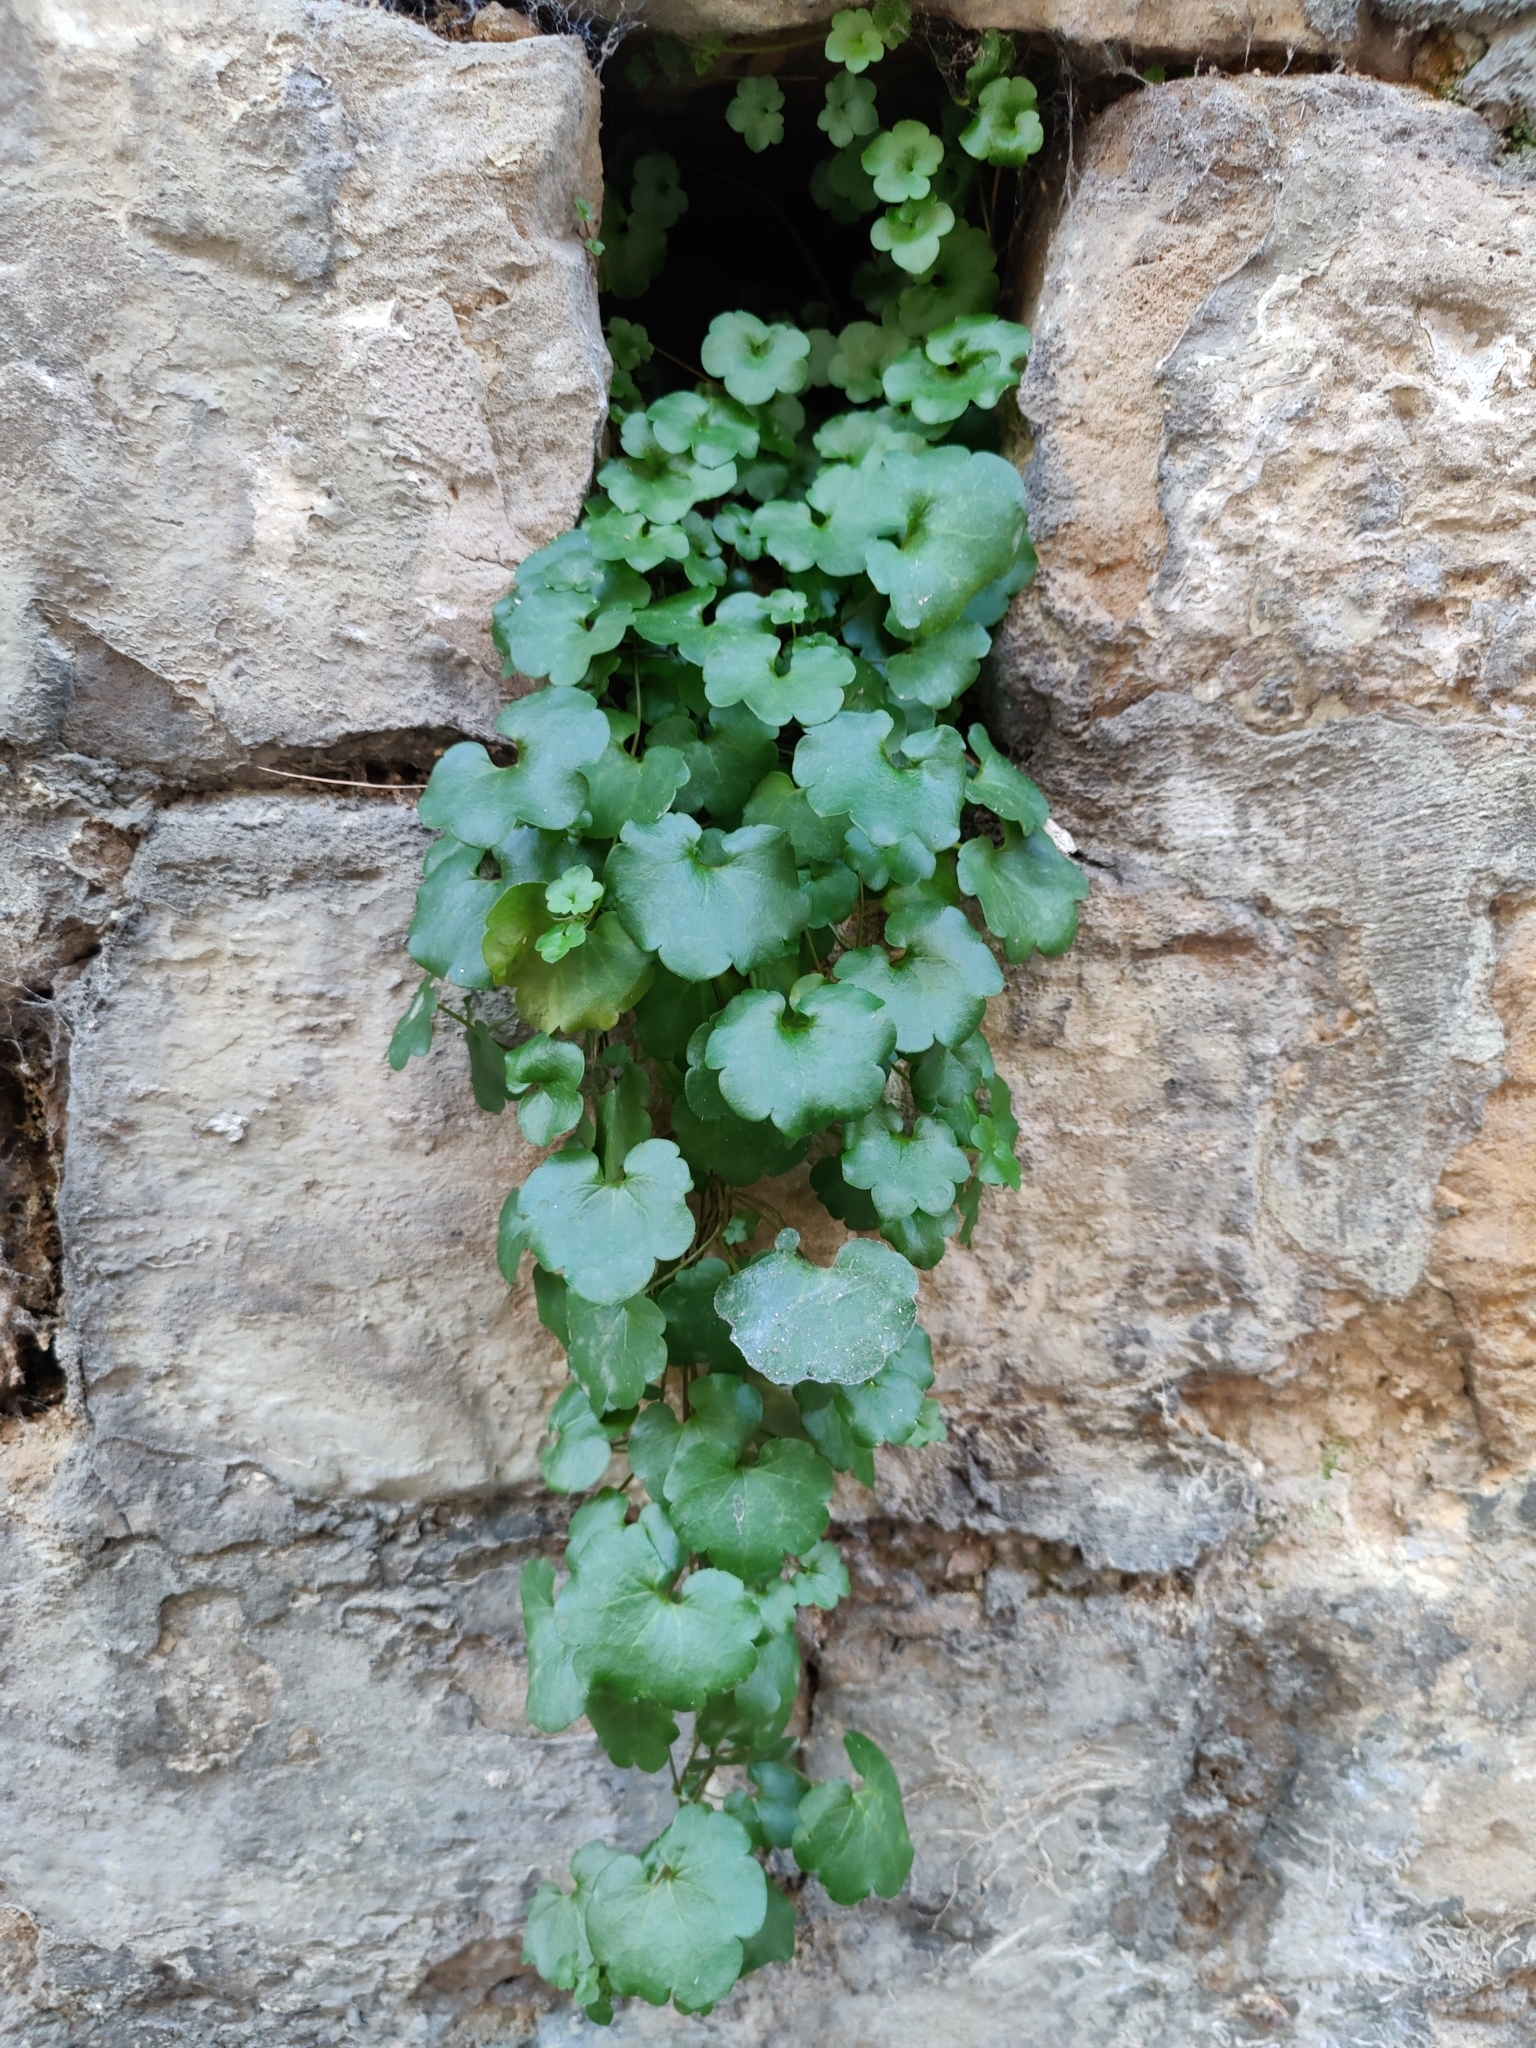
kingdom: Plantae
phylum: Tracheophyta
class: Magnoliopsida
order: Lamiales
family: Plantaginaceae
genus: Cymbalaria
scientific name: Cymbalaria muralis
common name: Ivy-leaved toadflax
